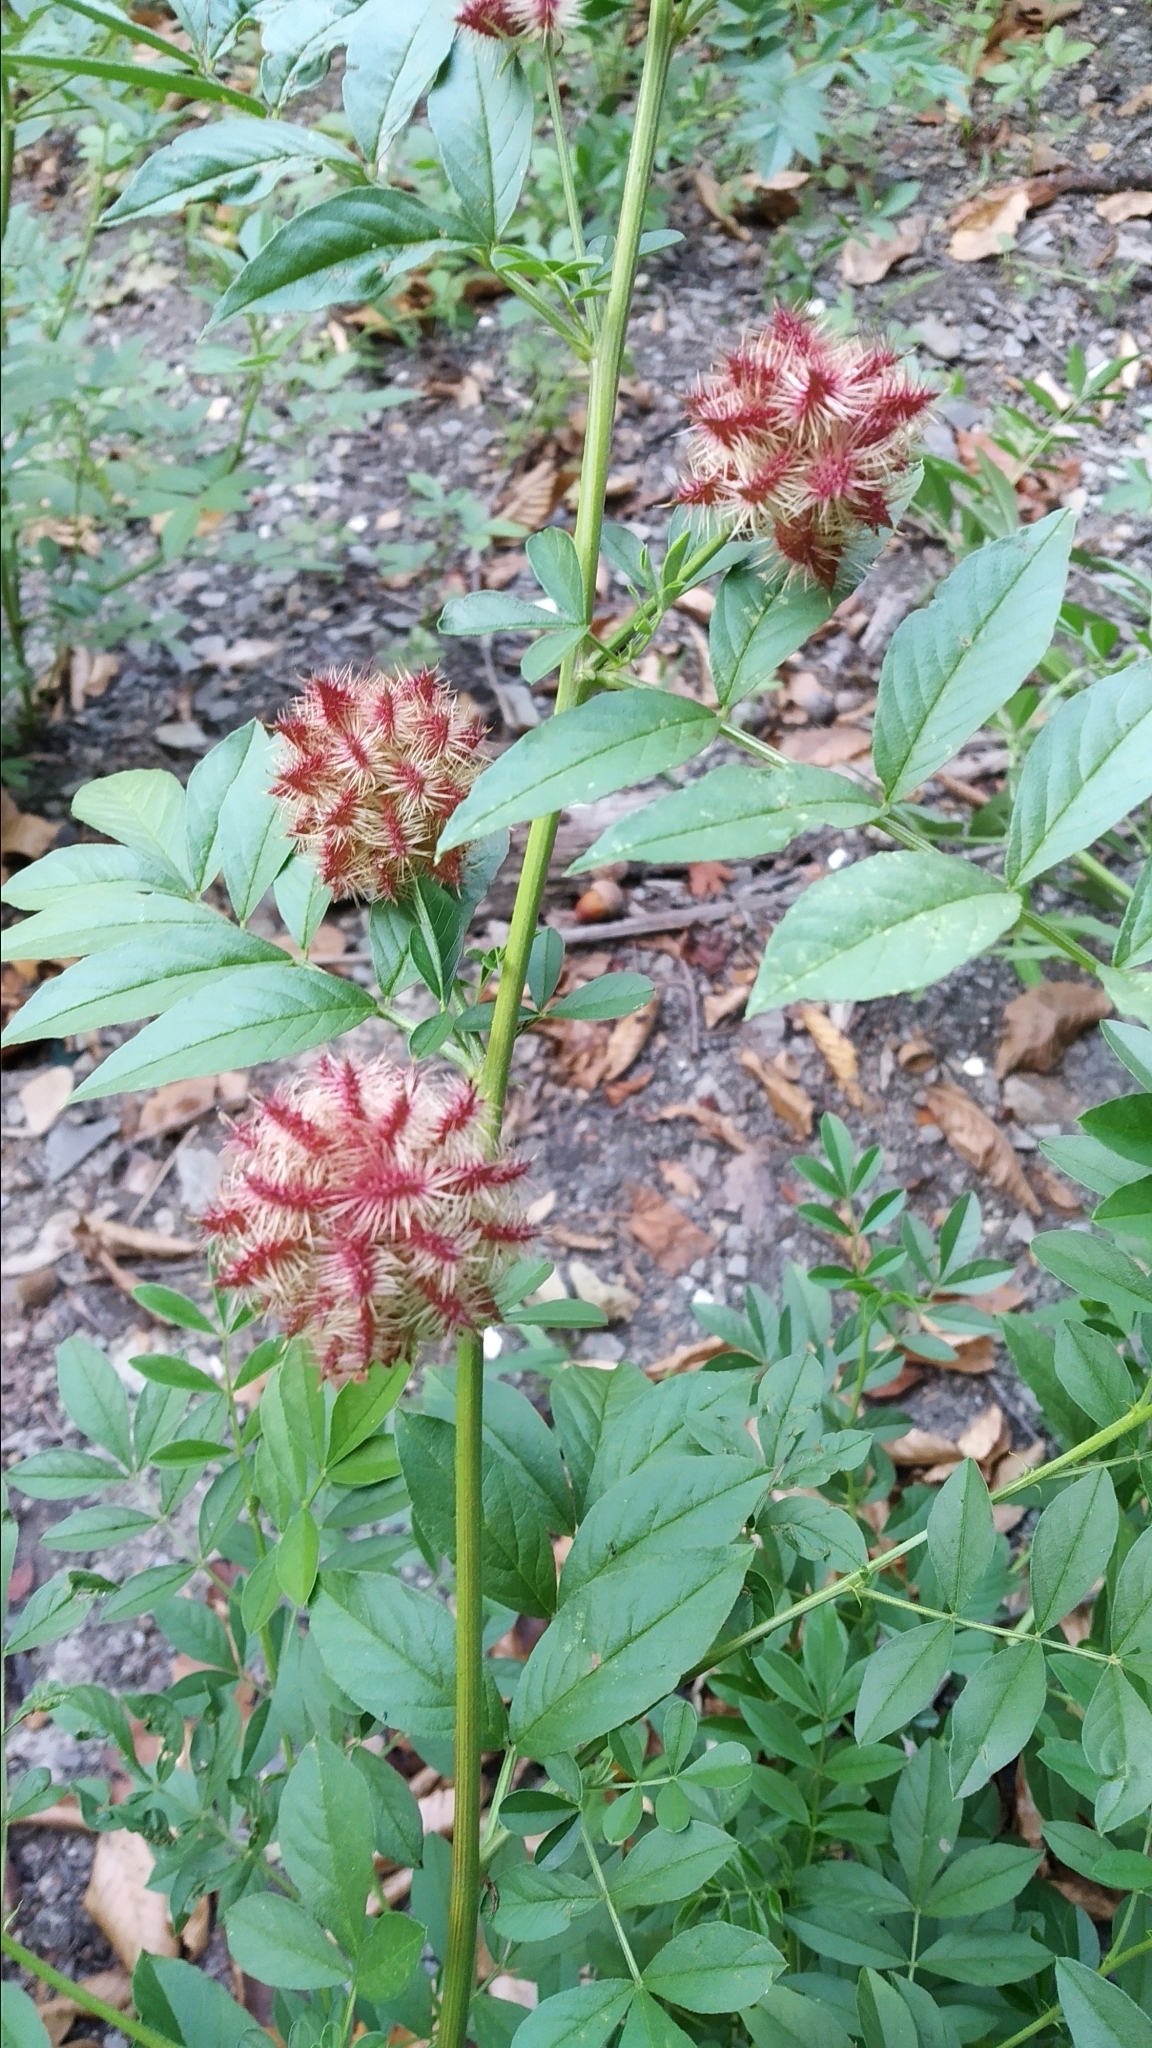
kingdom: Plantae
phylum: Tracheophyta
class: Magnoliopsida
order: Fabales
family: Fabaceae
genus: Glycyrrhiza
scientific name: Glycyrrhiza echinata
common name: German liquorice
